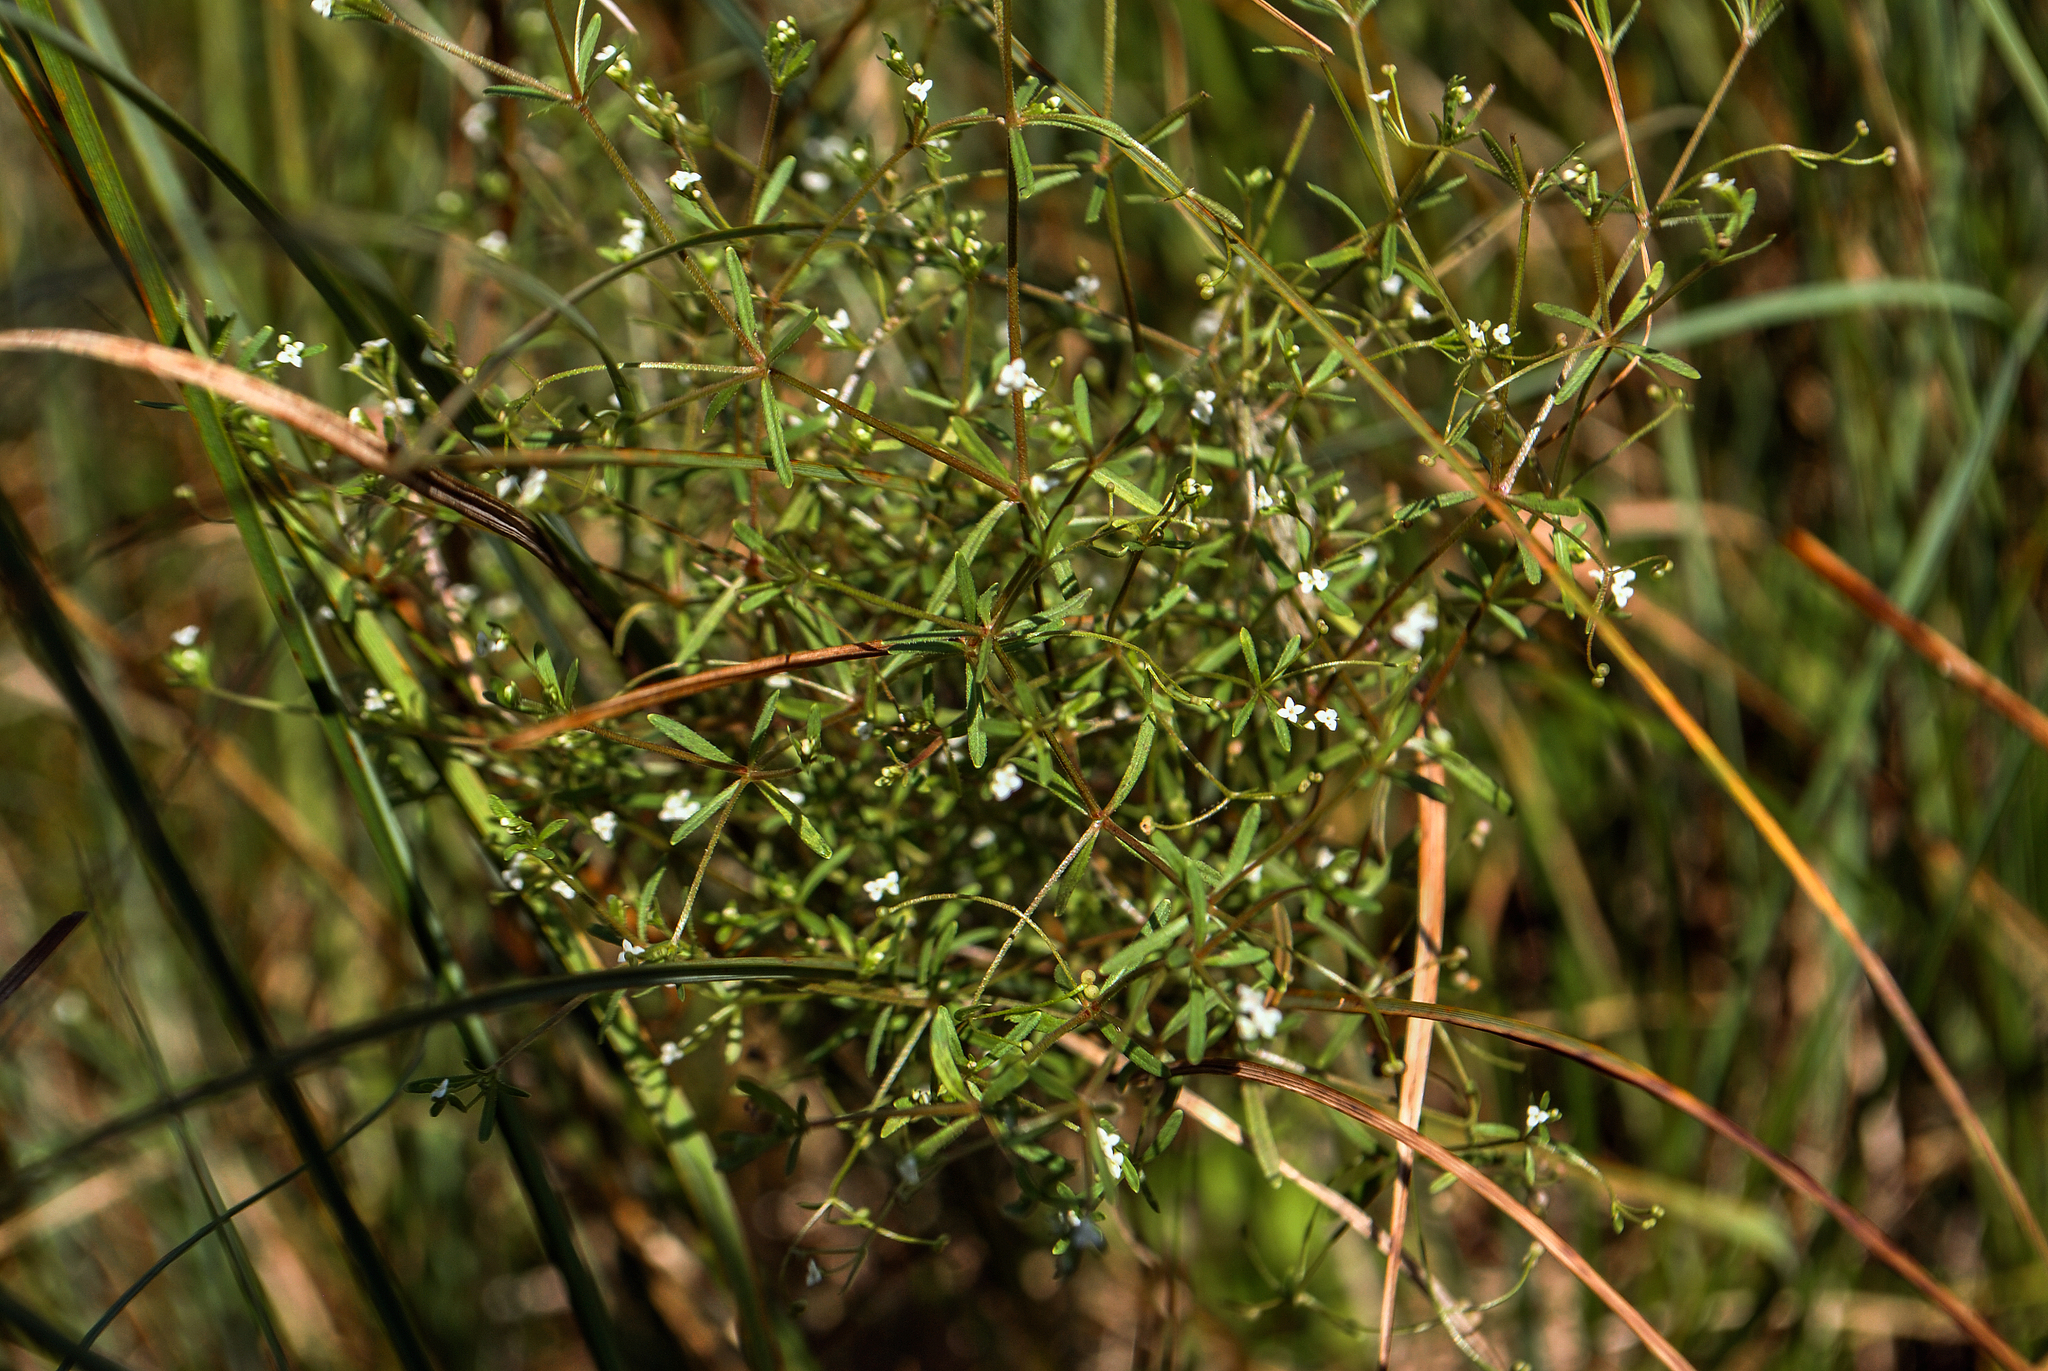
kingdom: Plantae
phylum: Tracheophyta
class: Magnoliopsida
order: Gentianales
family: Rubiaceae
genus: Galium
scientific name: Galium trifidum
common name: Small bedstraw
